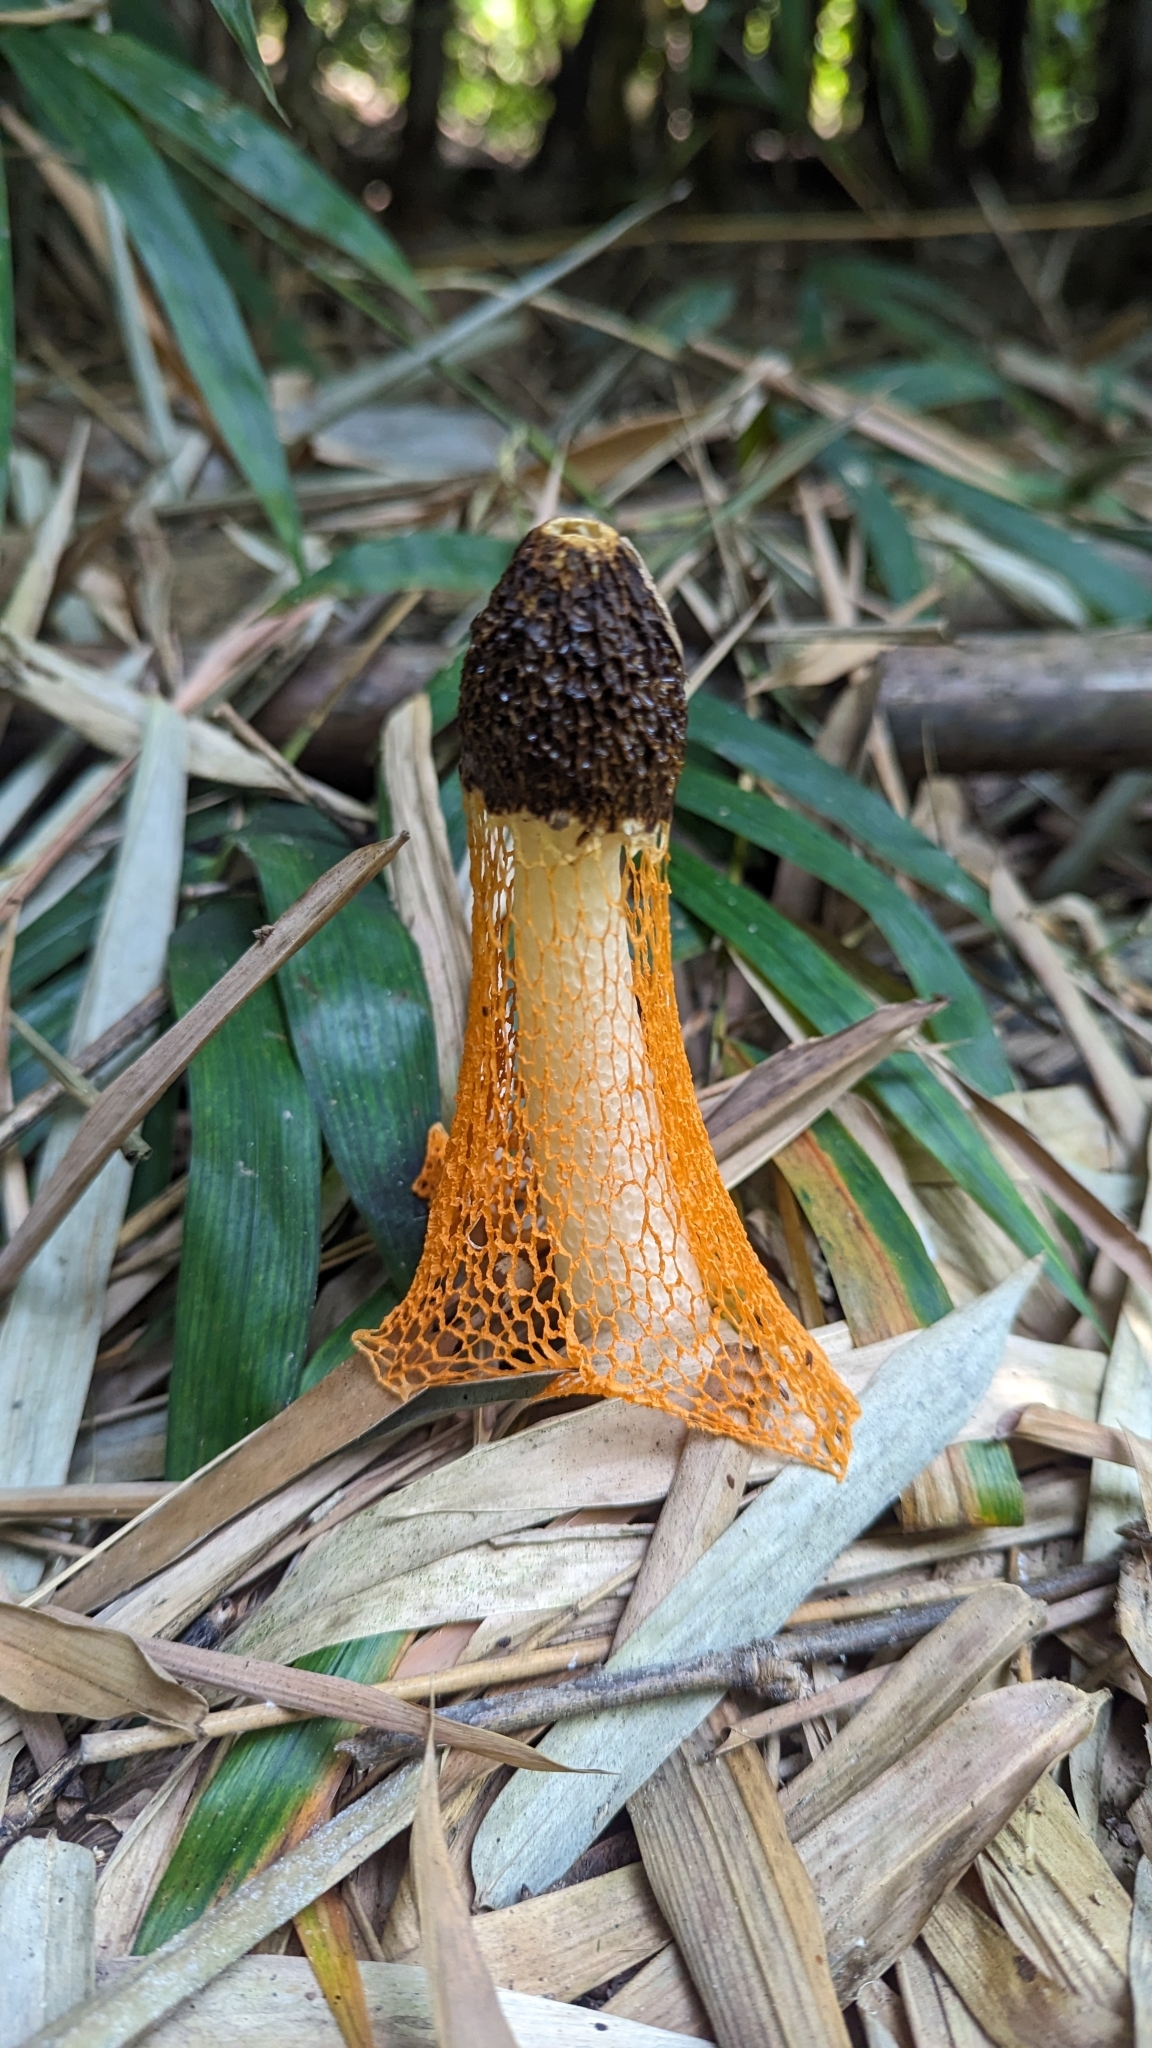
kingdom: Fungi
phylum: Basidiomycota
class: Agaricomycetes
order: Phallales
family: Phallaceae
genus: Phallus
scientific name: Phallus luteus
